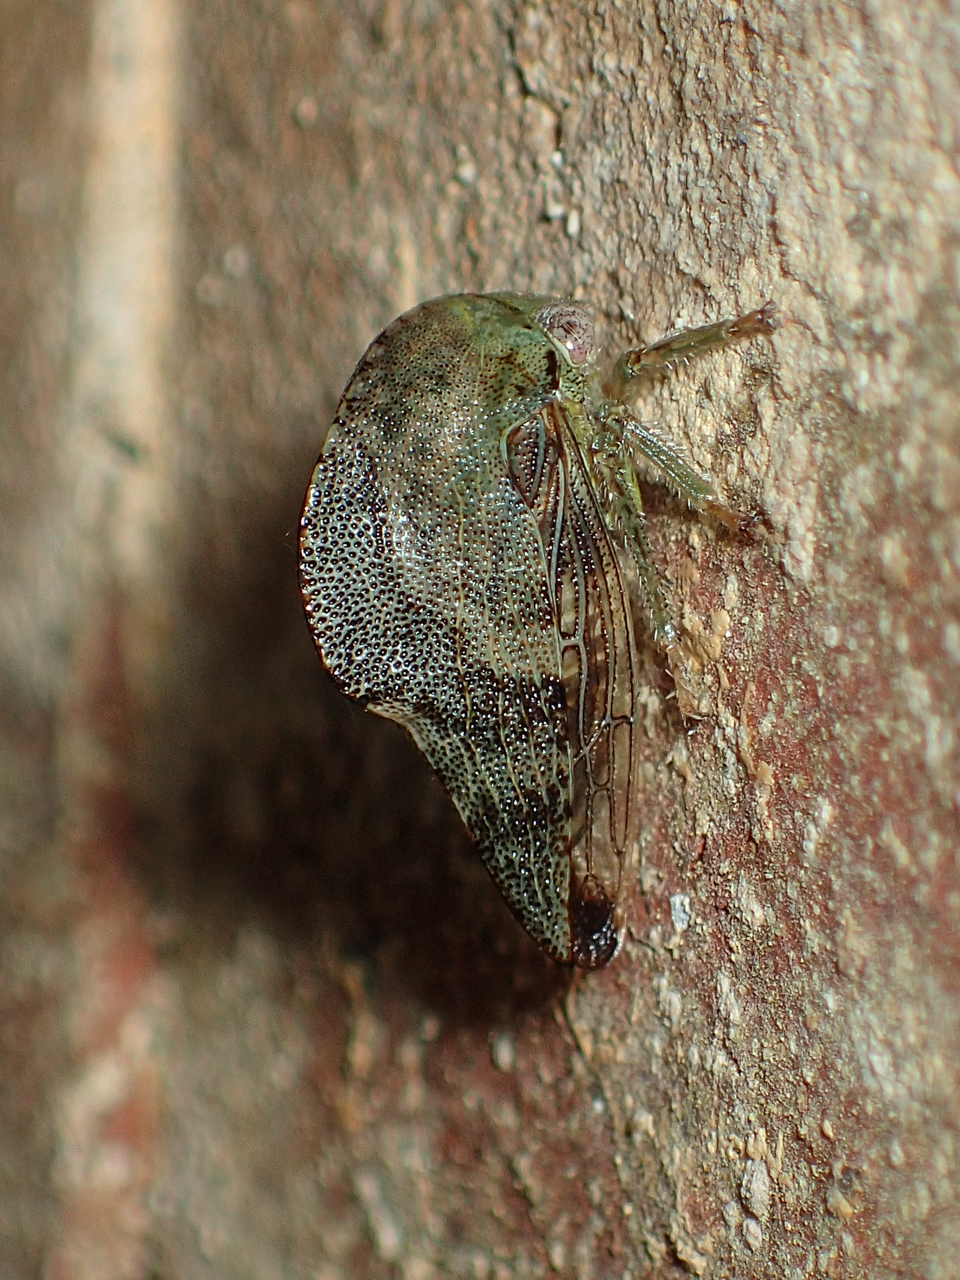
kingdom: Animalia
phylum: Arthropoda
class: Insecta
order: Hemiptera
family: Membracidae
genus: Telamona
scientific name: Telamona reclivata
